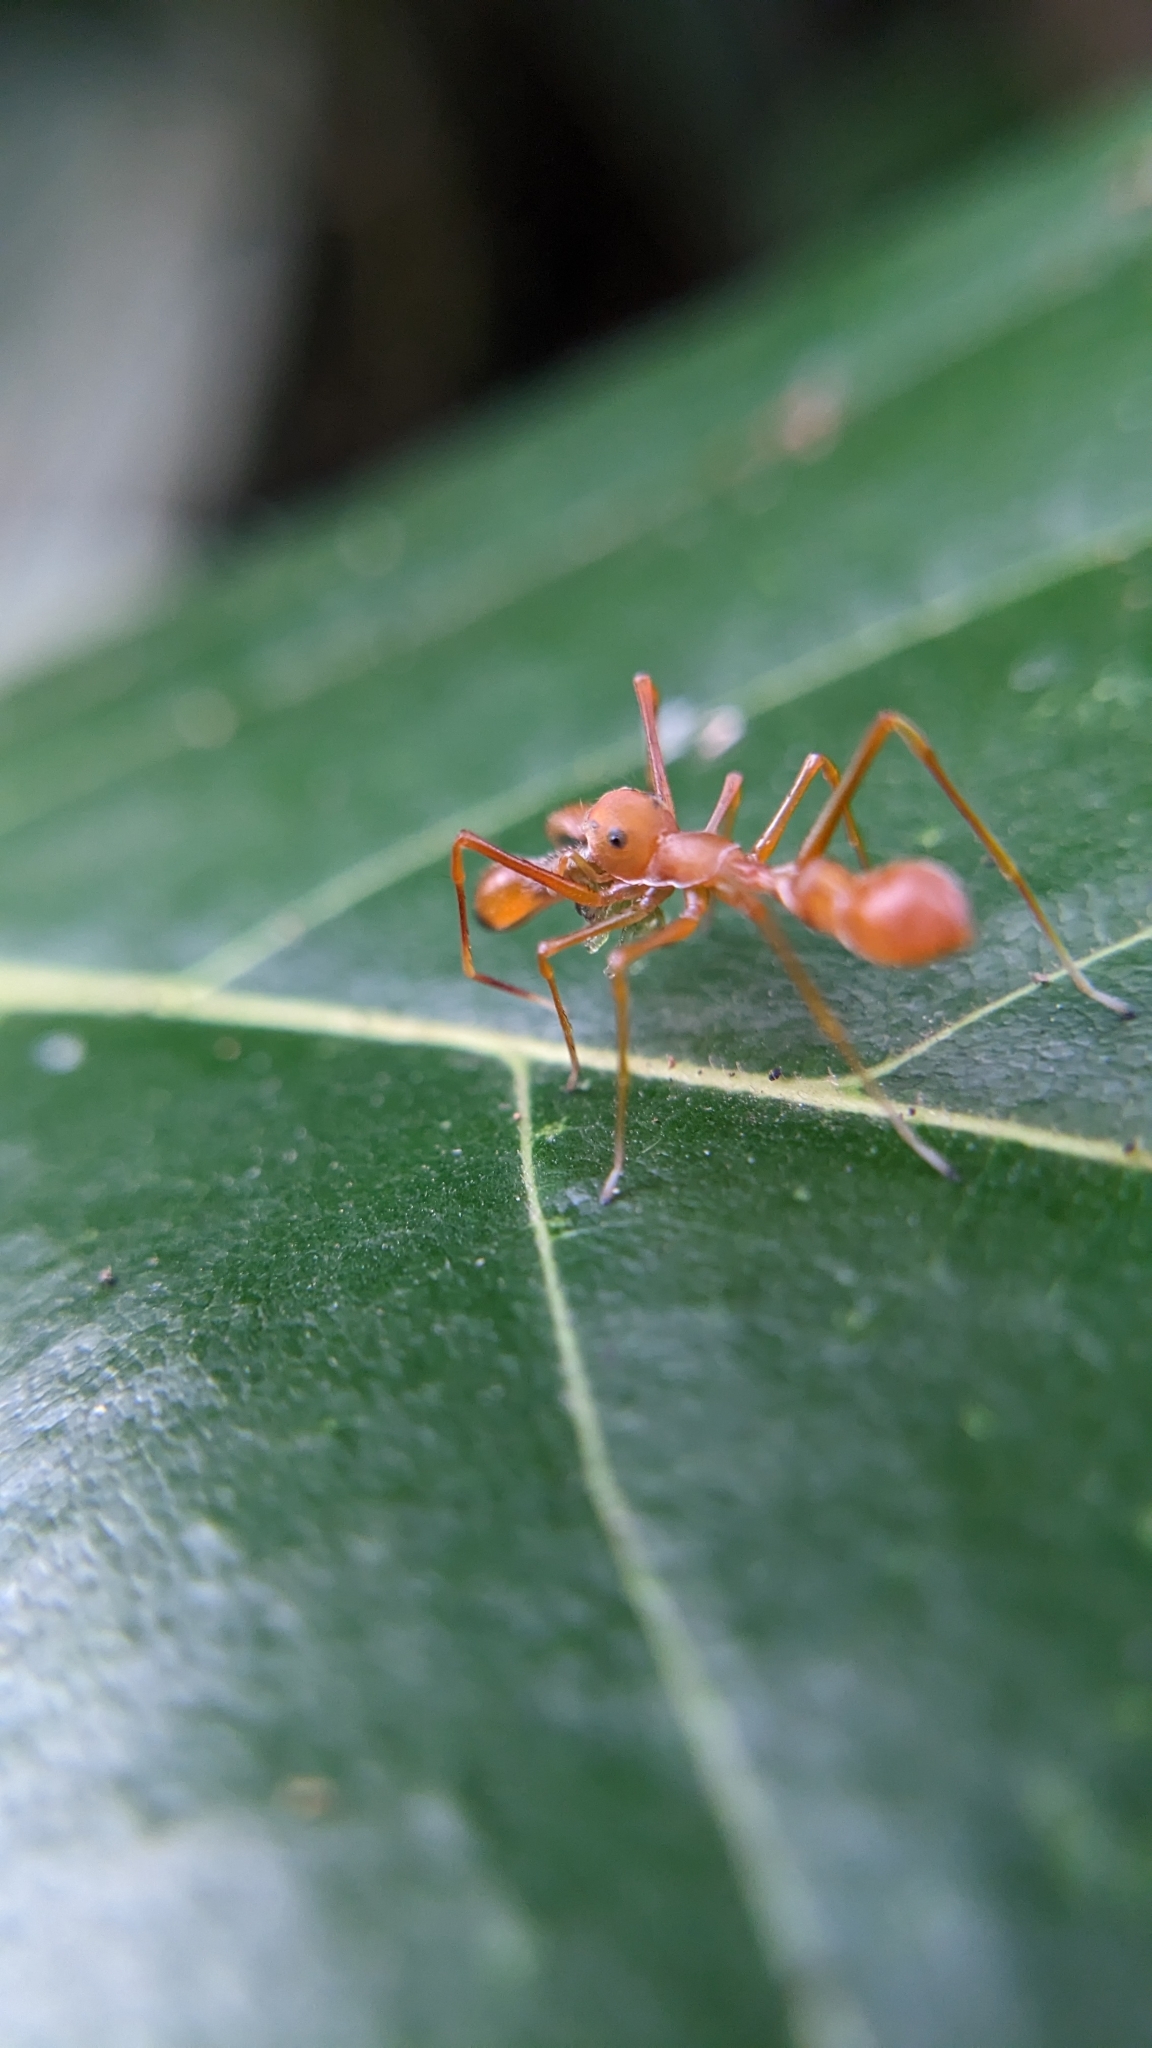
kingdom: Animalia
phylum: Arthropoda
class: Arachnida
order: Araneae
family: Salticidae
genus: Myrmaplata
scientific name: Myrmaplata plataleoides
